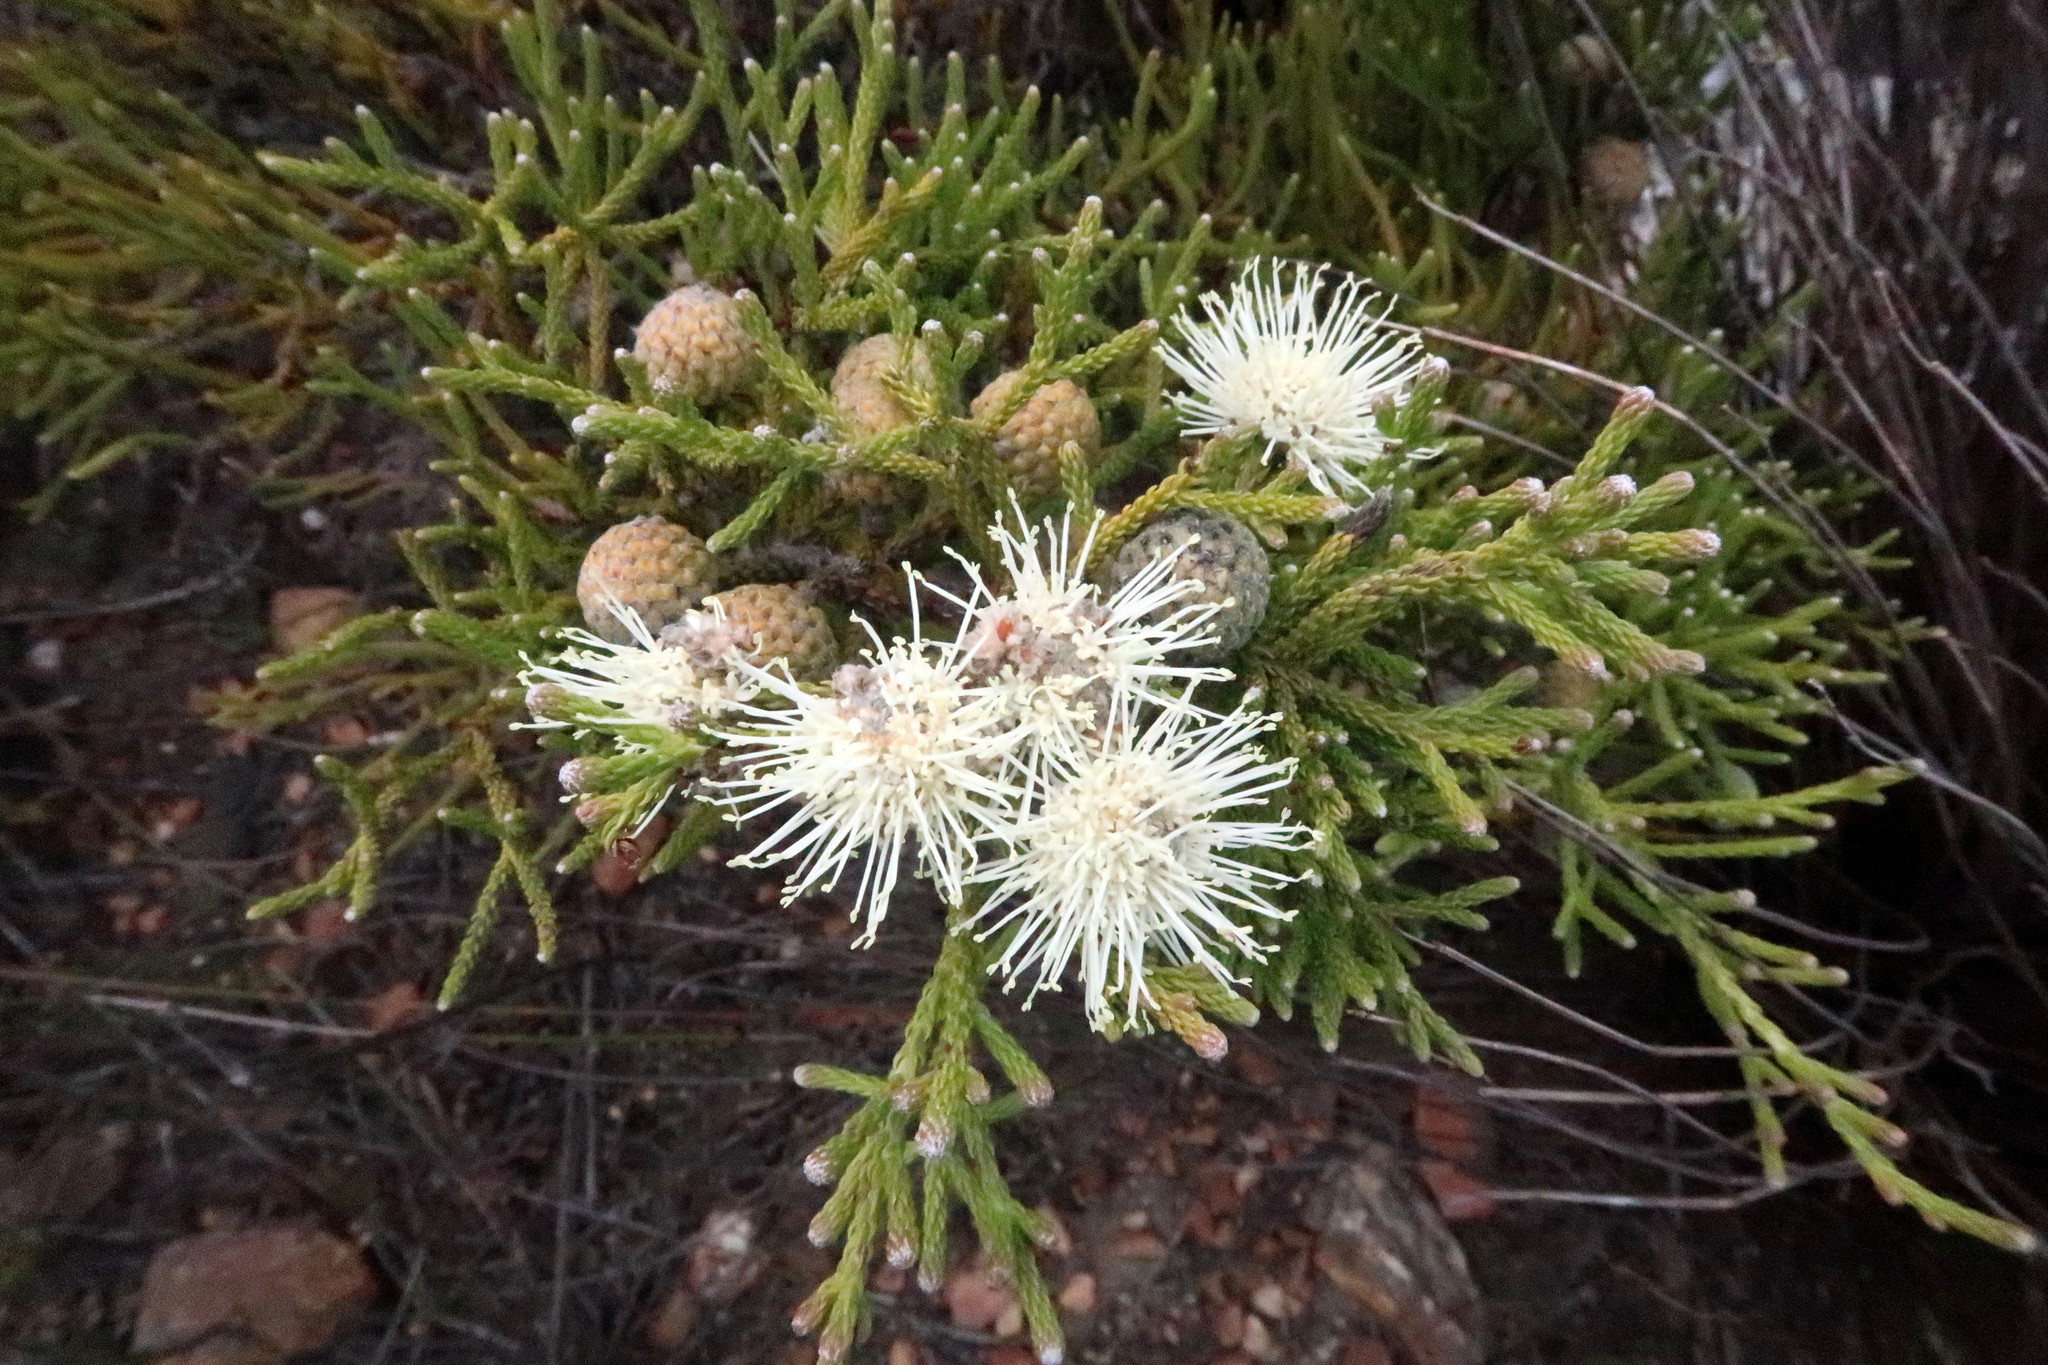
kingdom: Plantae
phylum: Tracheophyta
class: Magnoliopsida
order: Bruniales
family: Bruniaceae
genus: Brunia
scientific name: Brunia noduliflora
